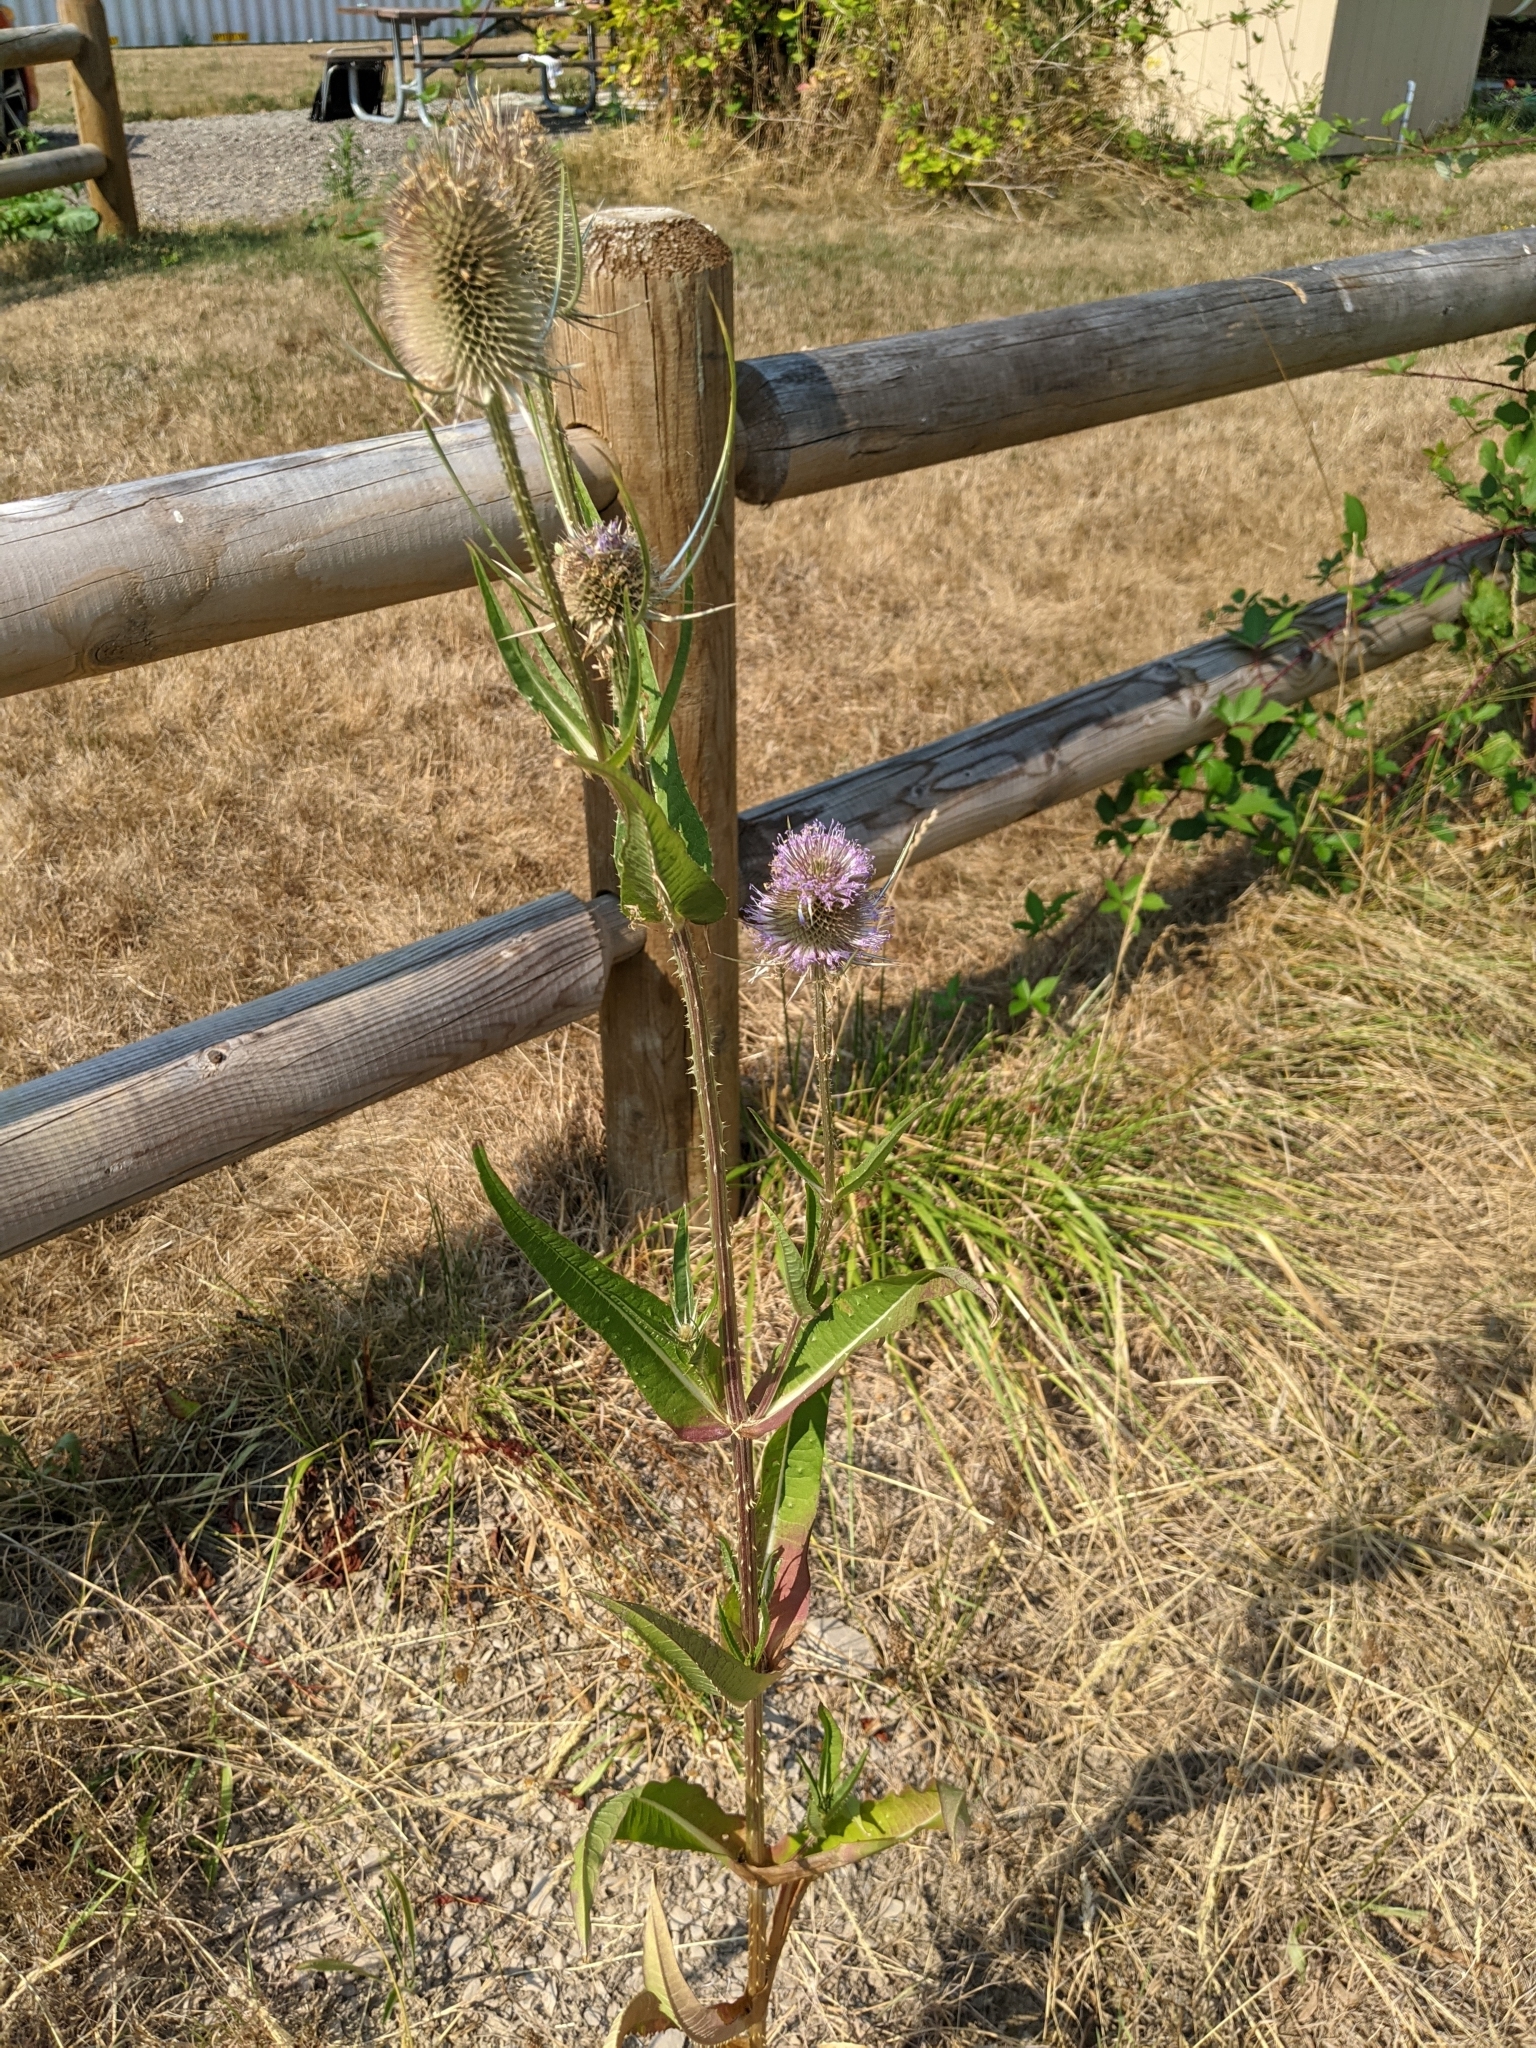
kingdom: Plantae
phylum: Tracheophyta
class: Magnoliopsida
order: Dipsacales
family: Caprifoliaceae
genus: Dipsacus
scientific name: Dipsacus fullonum
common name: Teasel
